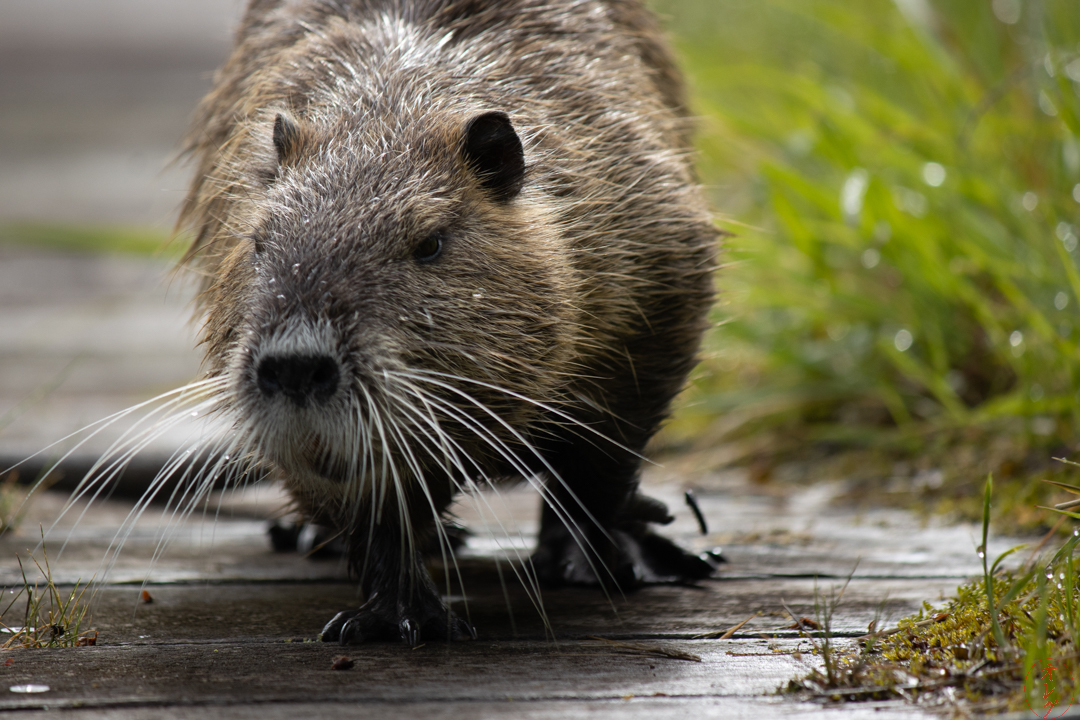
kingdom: Animalia
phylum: Chordata
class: Mammalia
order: Rodentia
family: Myocastoridae
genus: Myocastor
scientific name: Myocastor coypus
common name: Coypu
